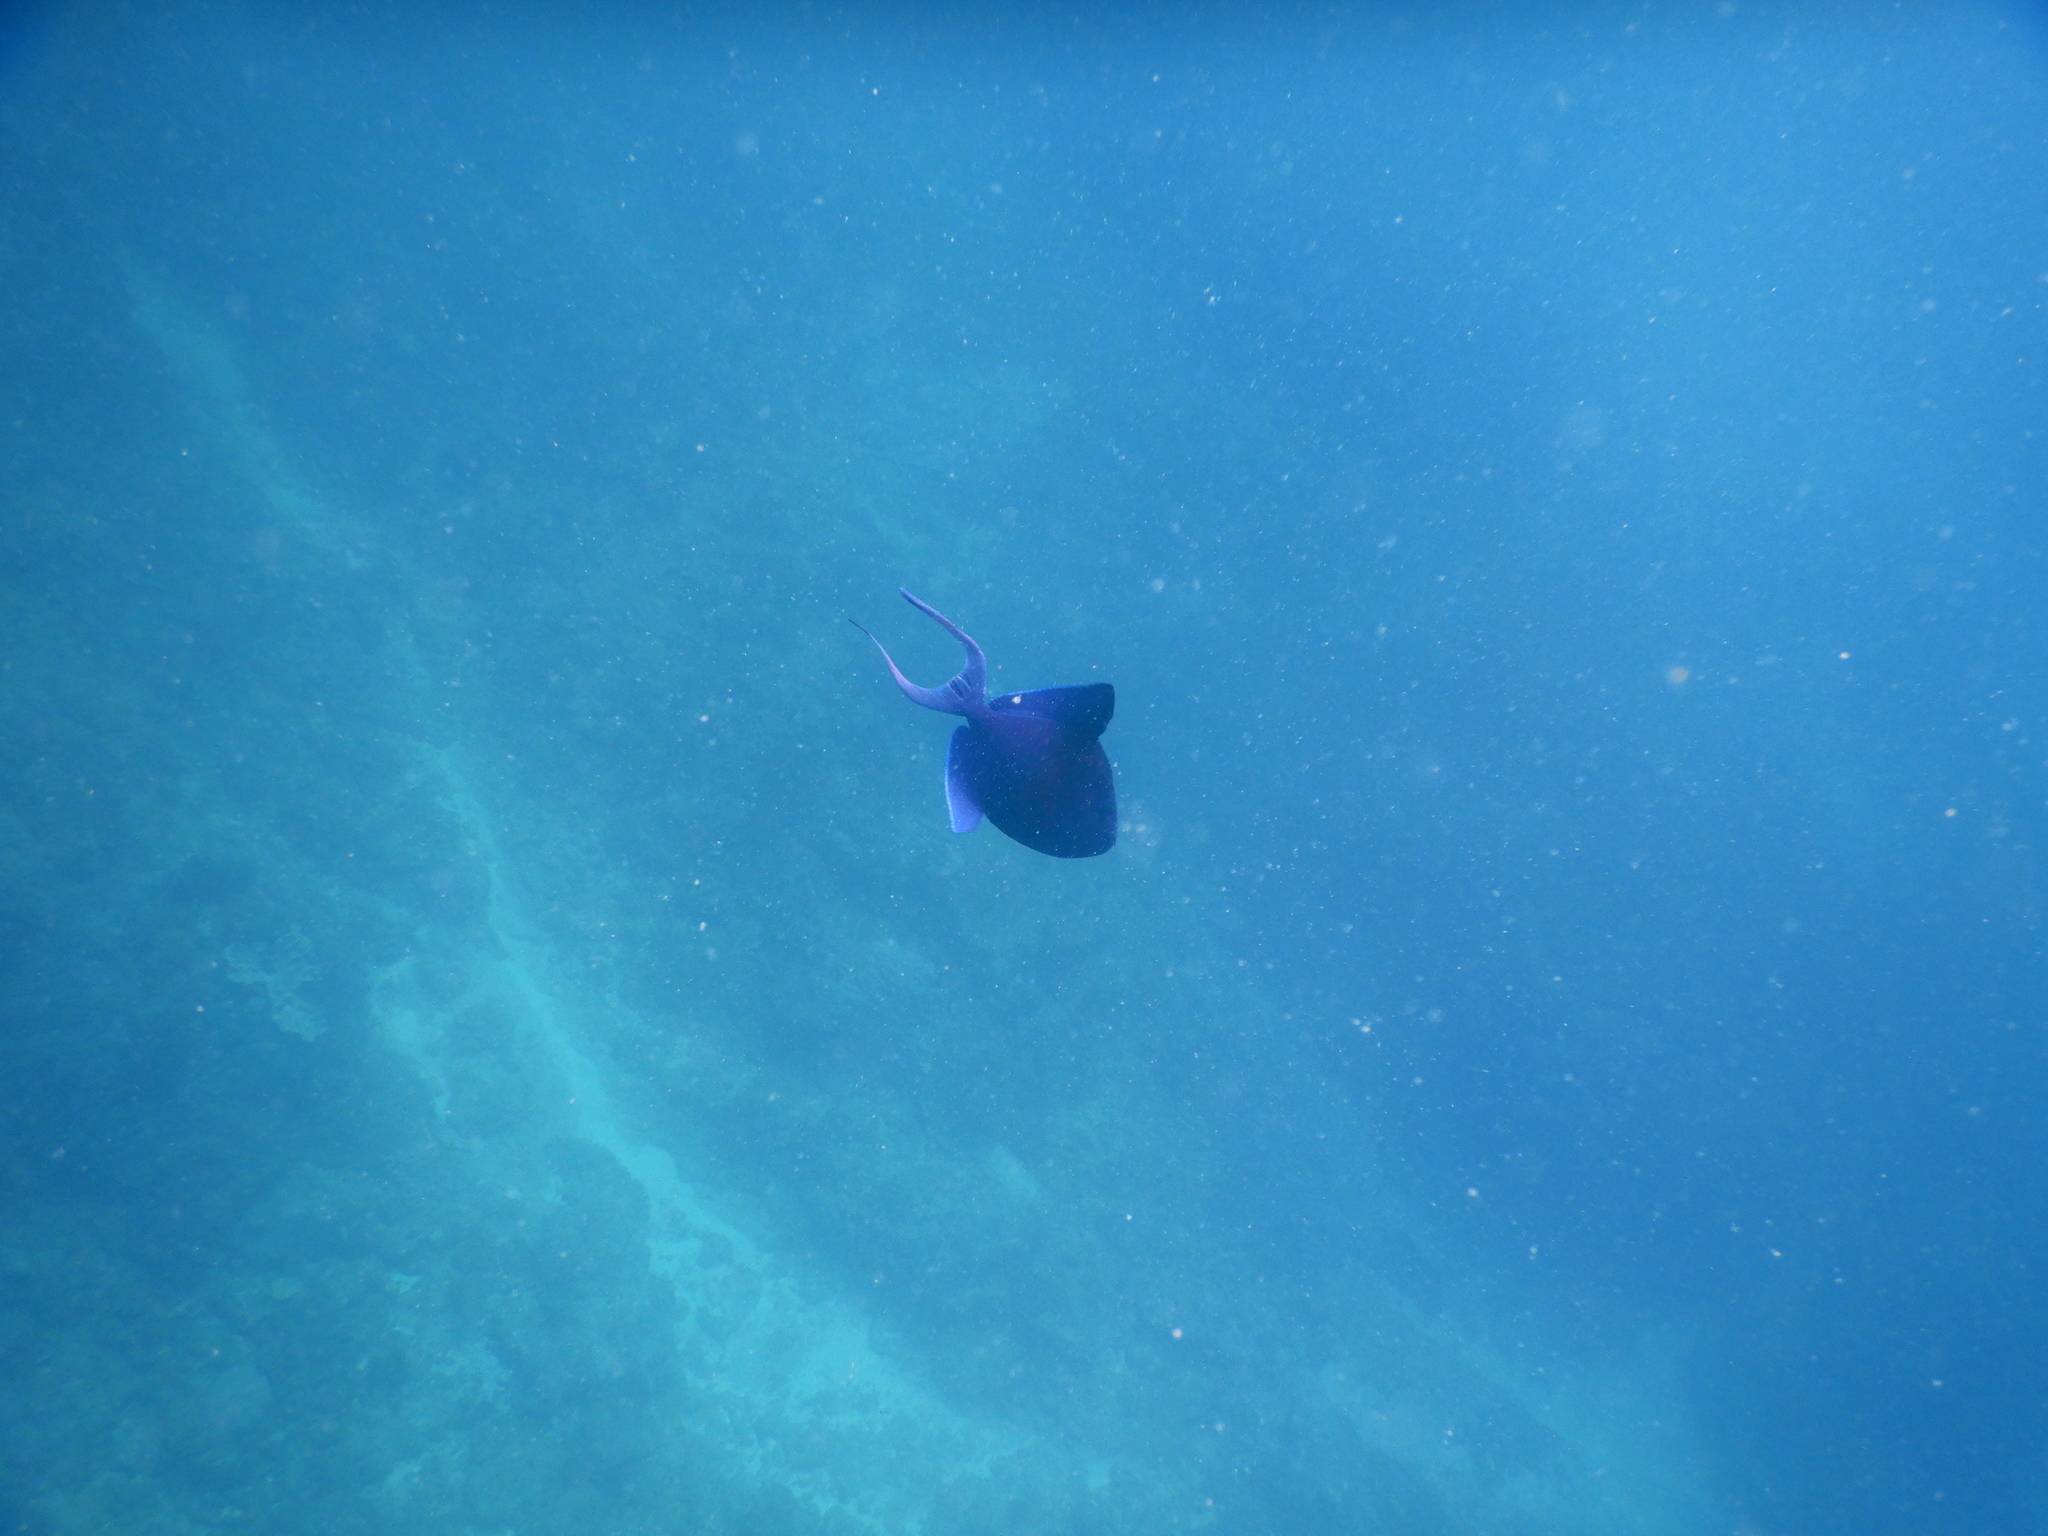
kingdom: Animalia
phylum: Chordata
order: Tetraodontiformes
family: Balistidae
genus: Odonus
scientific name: Odonus niger
